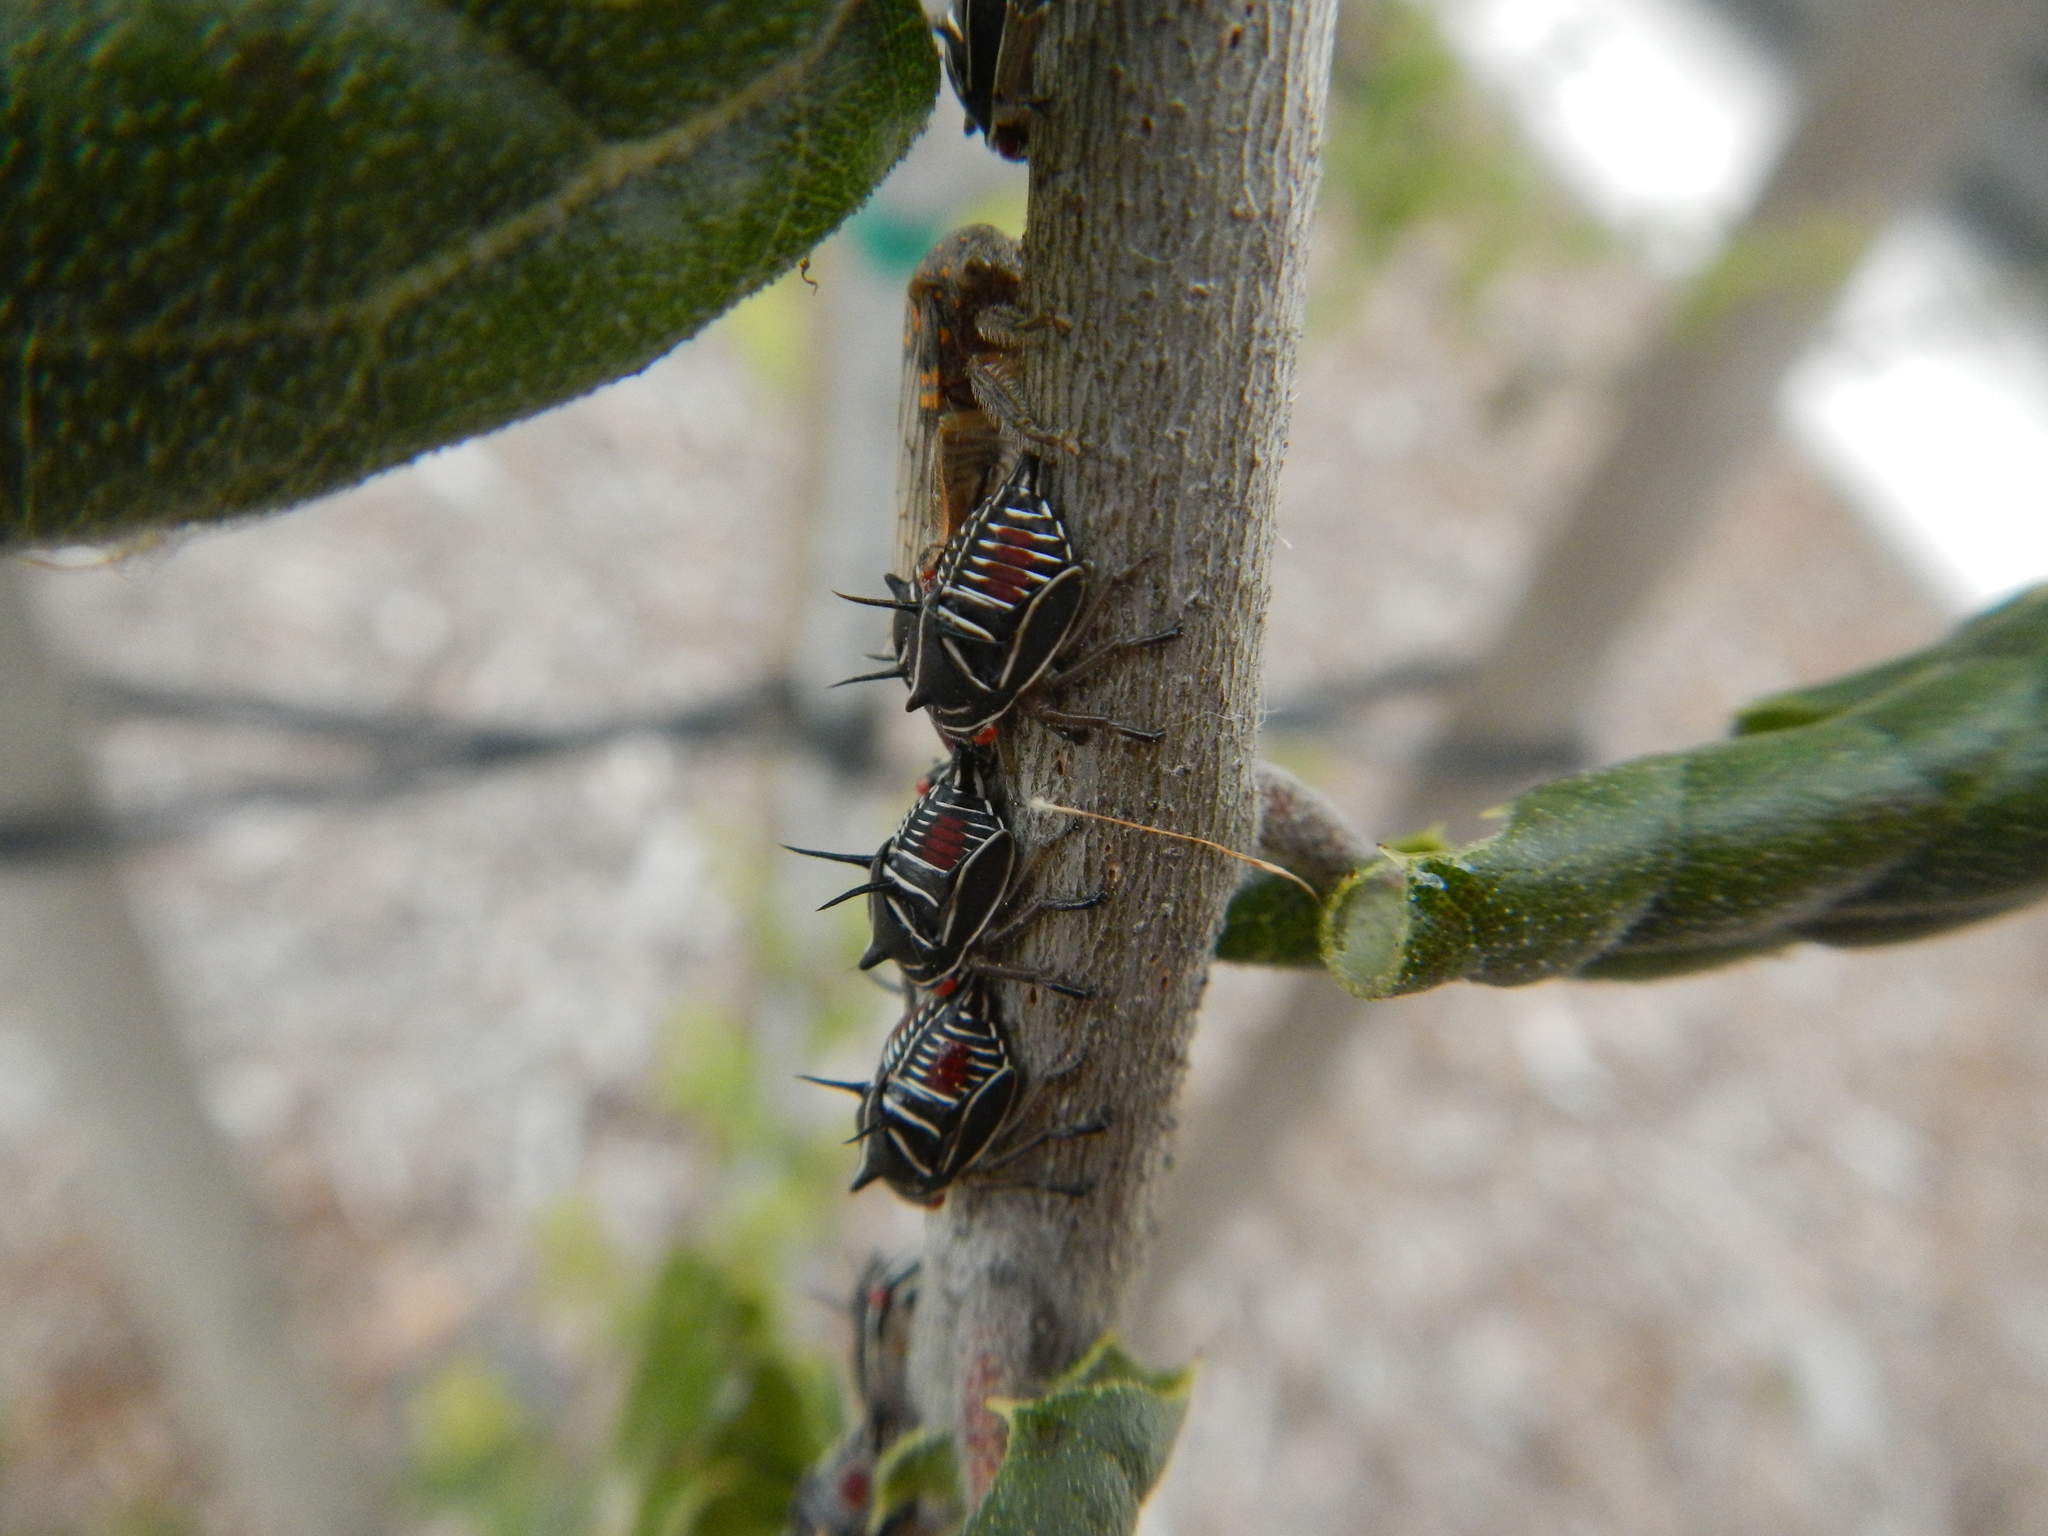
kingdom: Animalia
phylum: Arthropoda
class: Insecta
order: Hemiptera
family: Membracidae
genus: Platycotis
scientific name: Platycotis vittatus
